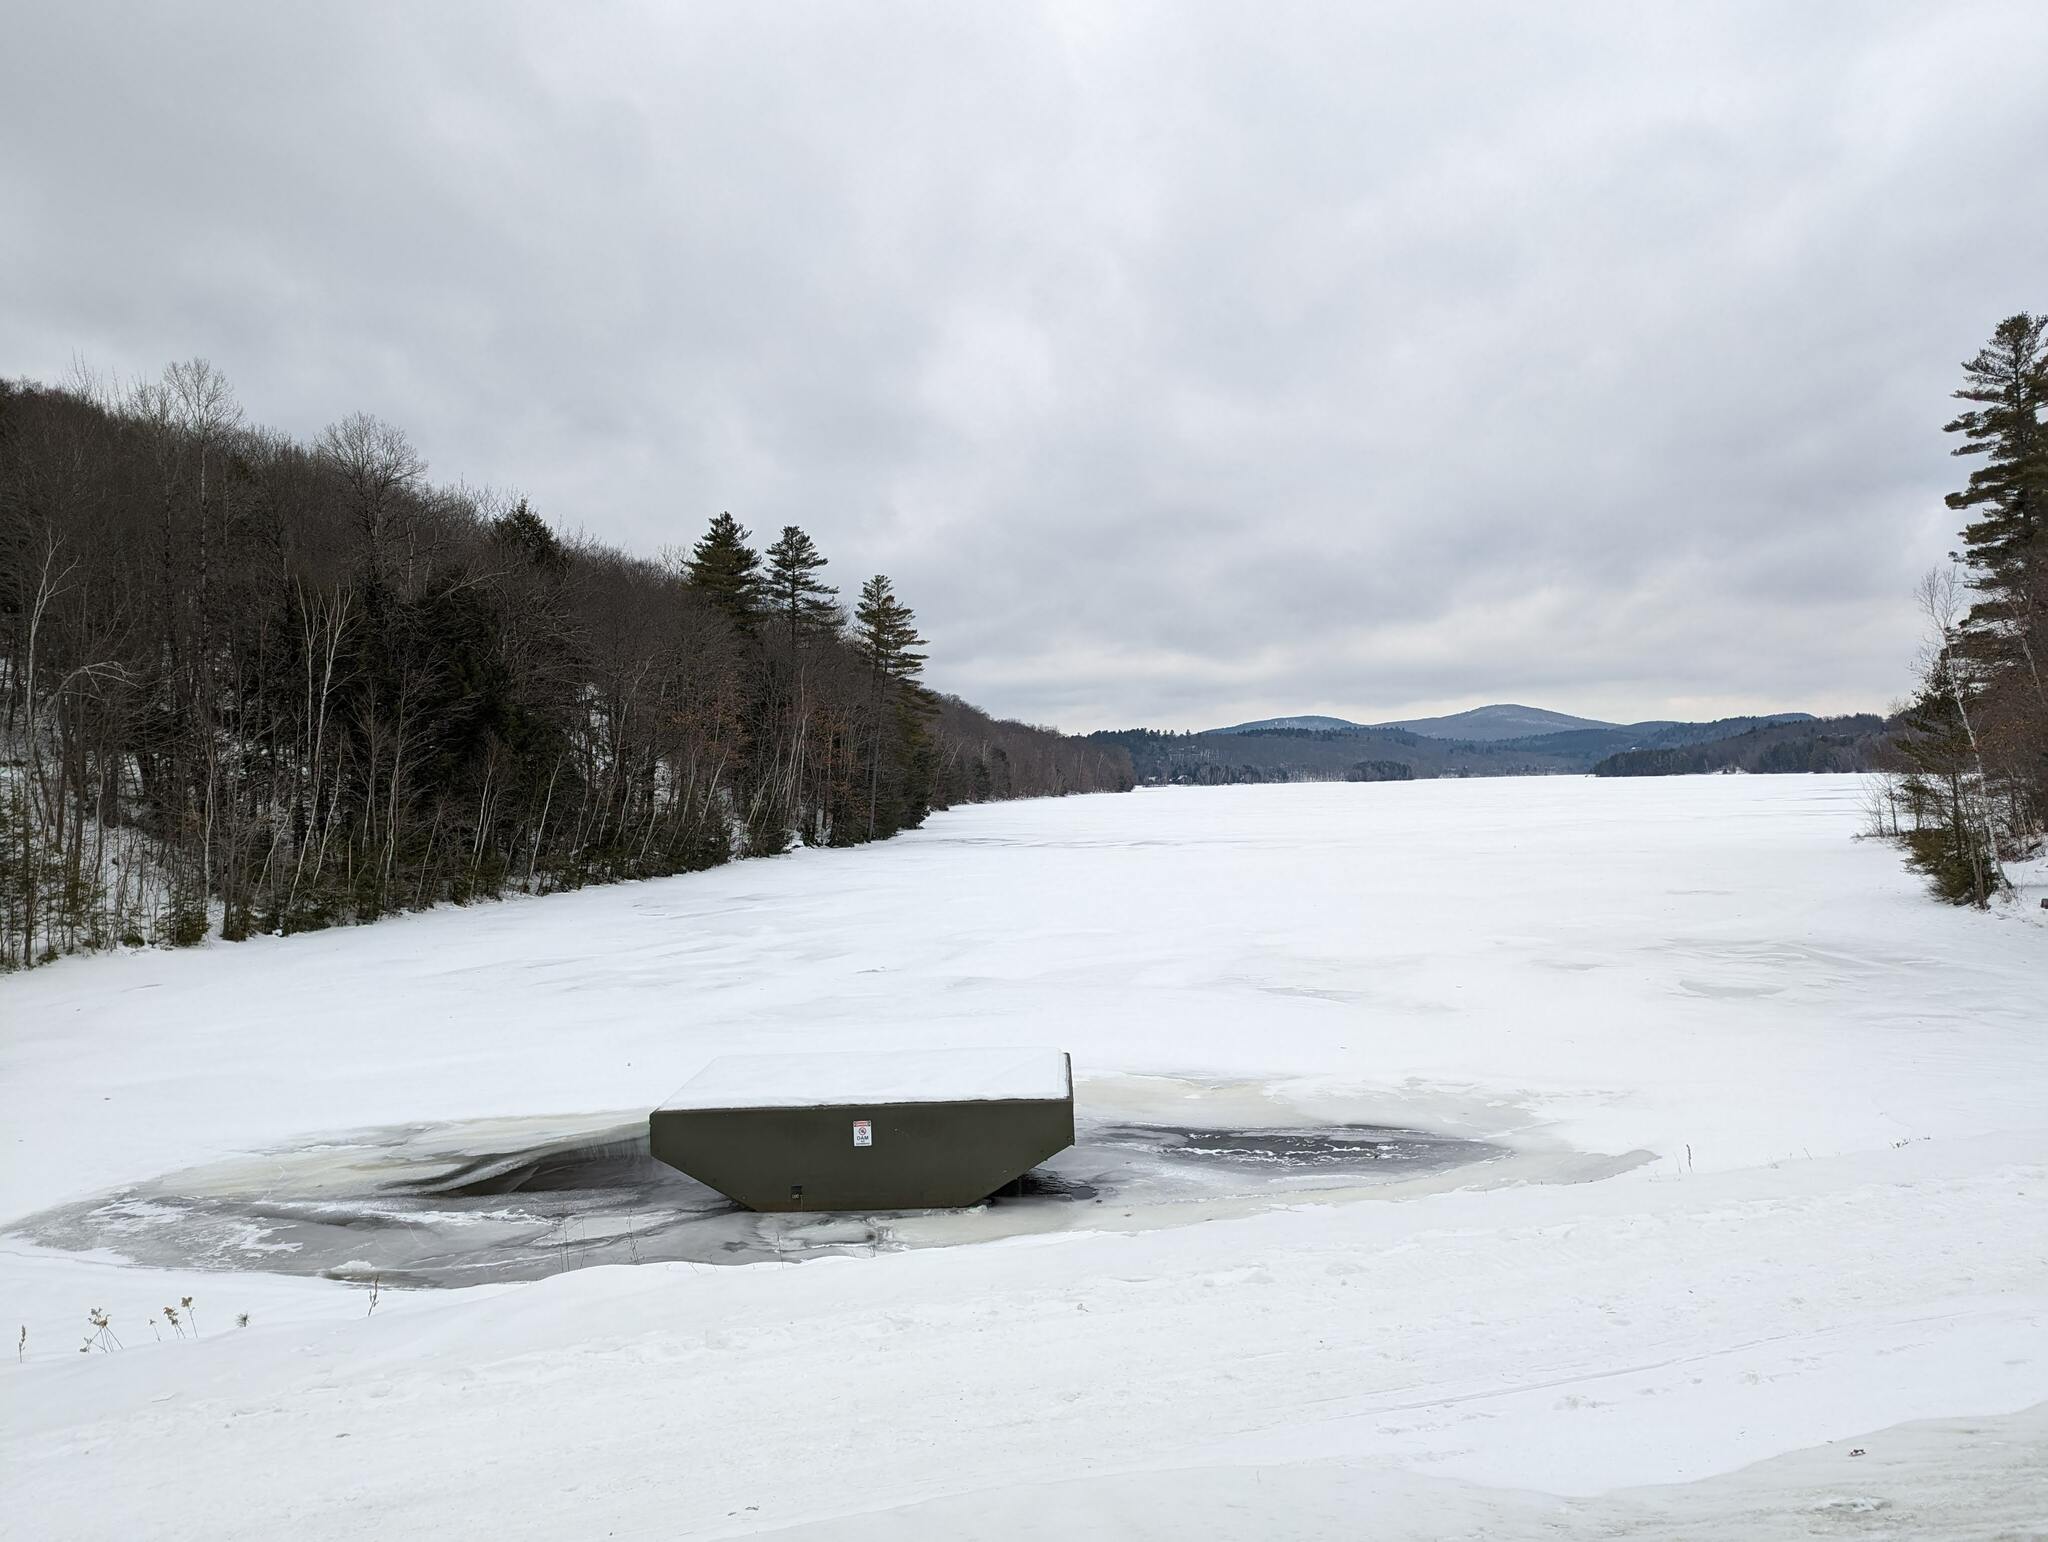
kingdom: Plantae
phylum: Tracheophyta
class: Pinopsida
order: Pinales
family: Pinaceae
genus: Pinus
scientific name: Pinus strobus
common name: Weymouth pine
